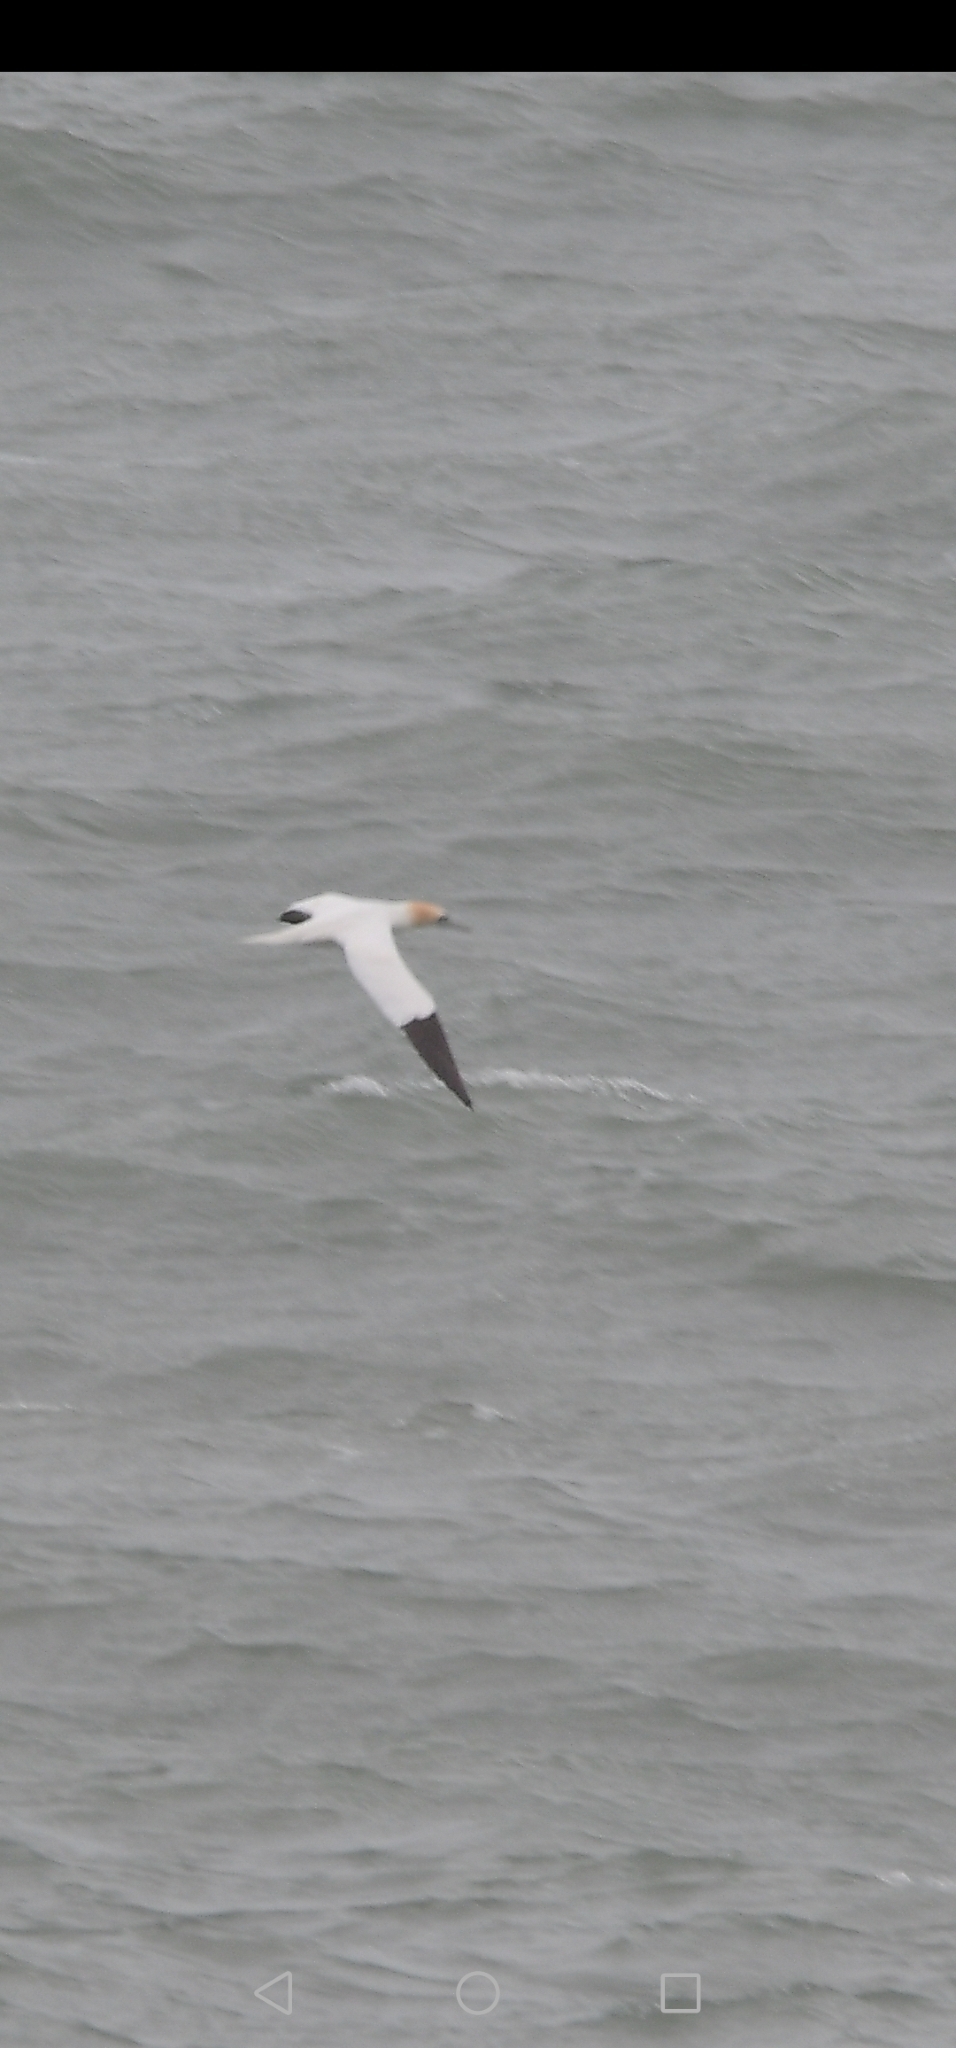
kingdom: Animalia
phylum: Chordata
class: Aves
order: Suliformes
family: Sulidae
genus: Morus
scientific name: Morus bassanus
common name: Northern gannet
